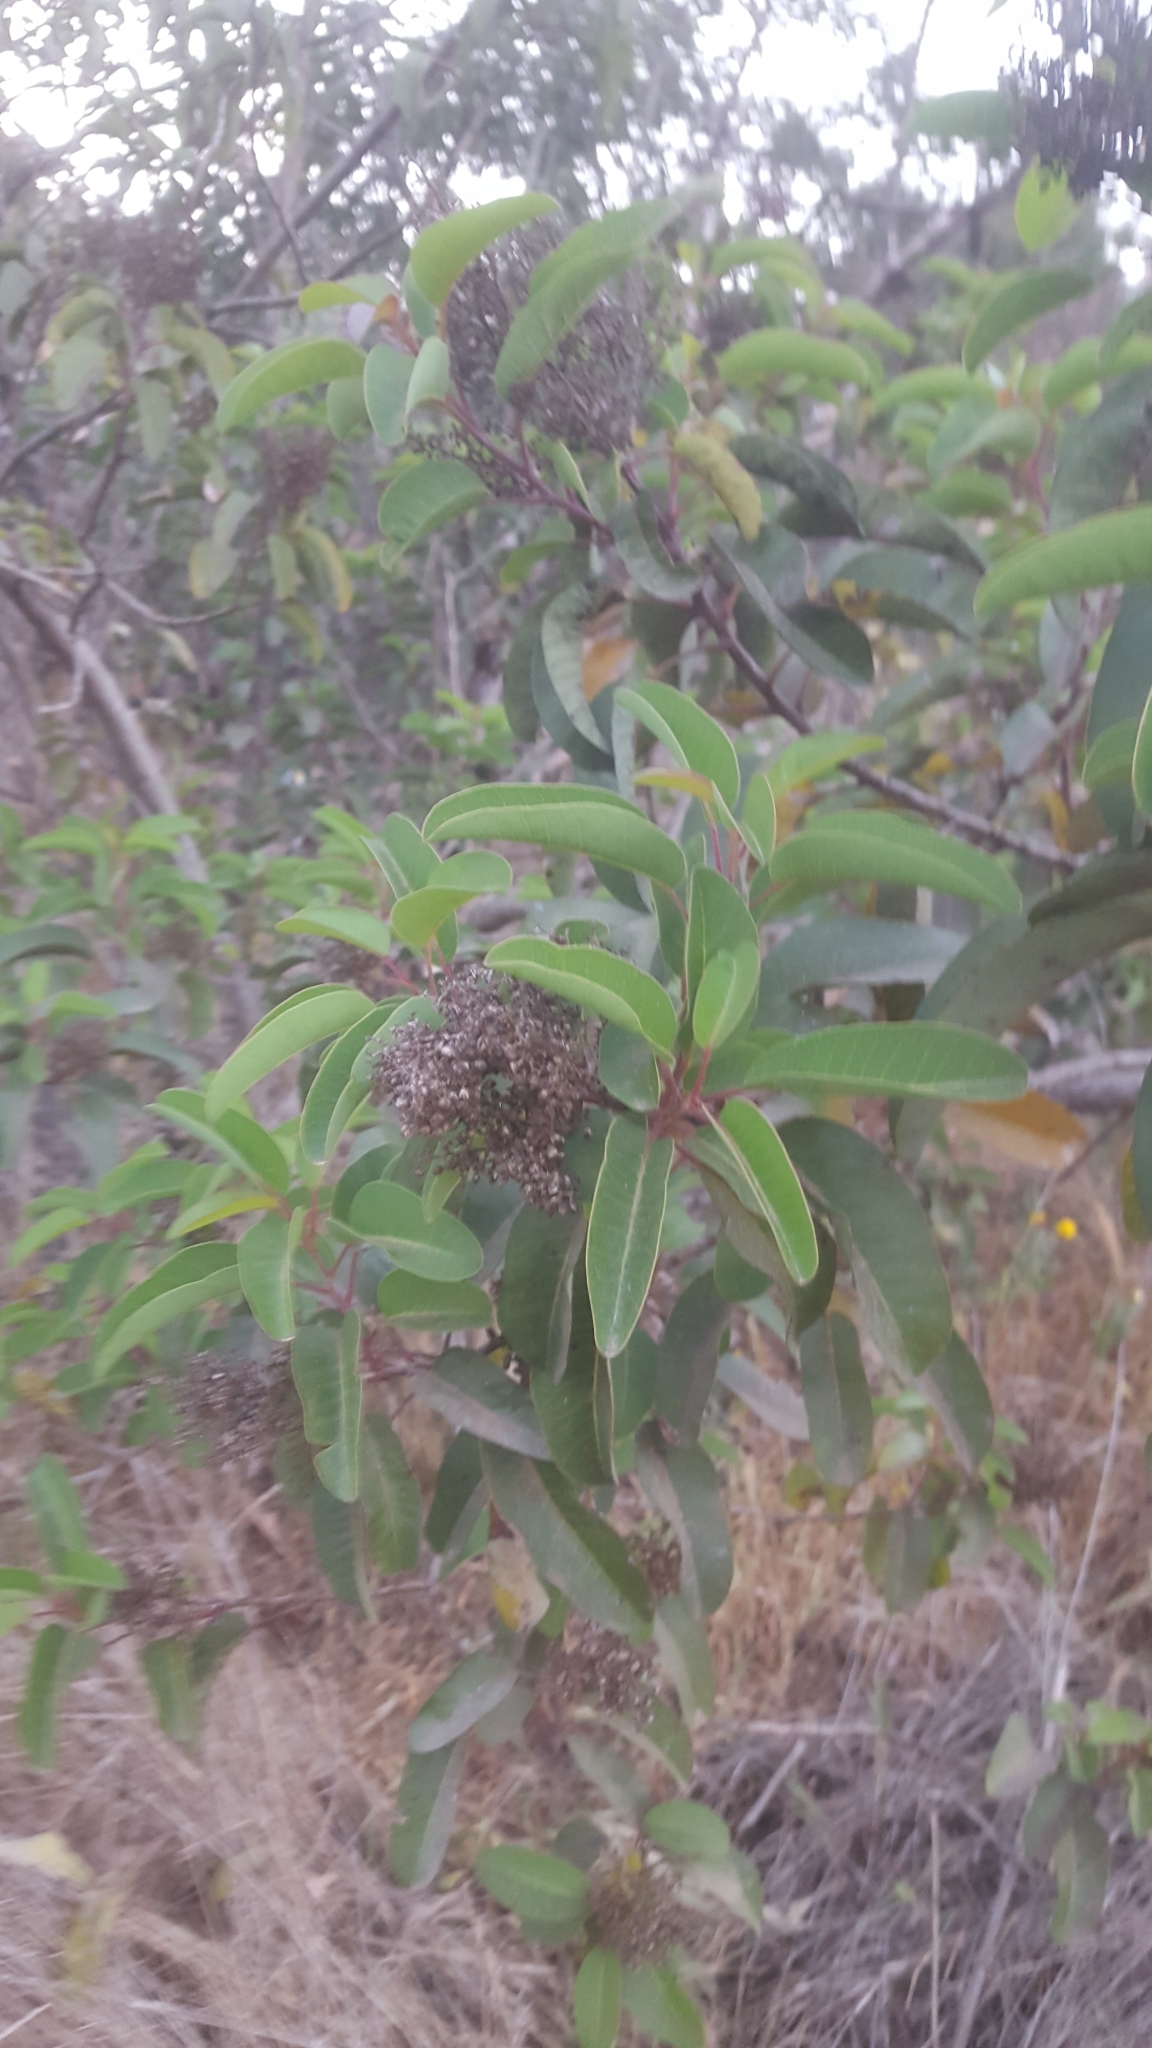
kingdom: Plantae
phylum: Tracheophyta
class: Magnoliopsida
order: Sapindales
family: Anacardiaceae
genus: Malosma
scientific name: Malosma laurina
